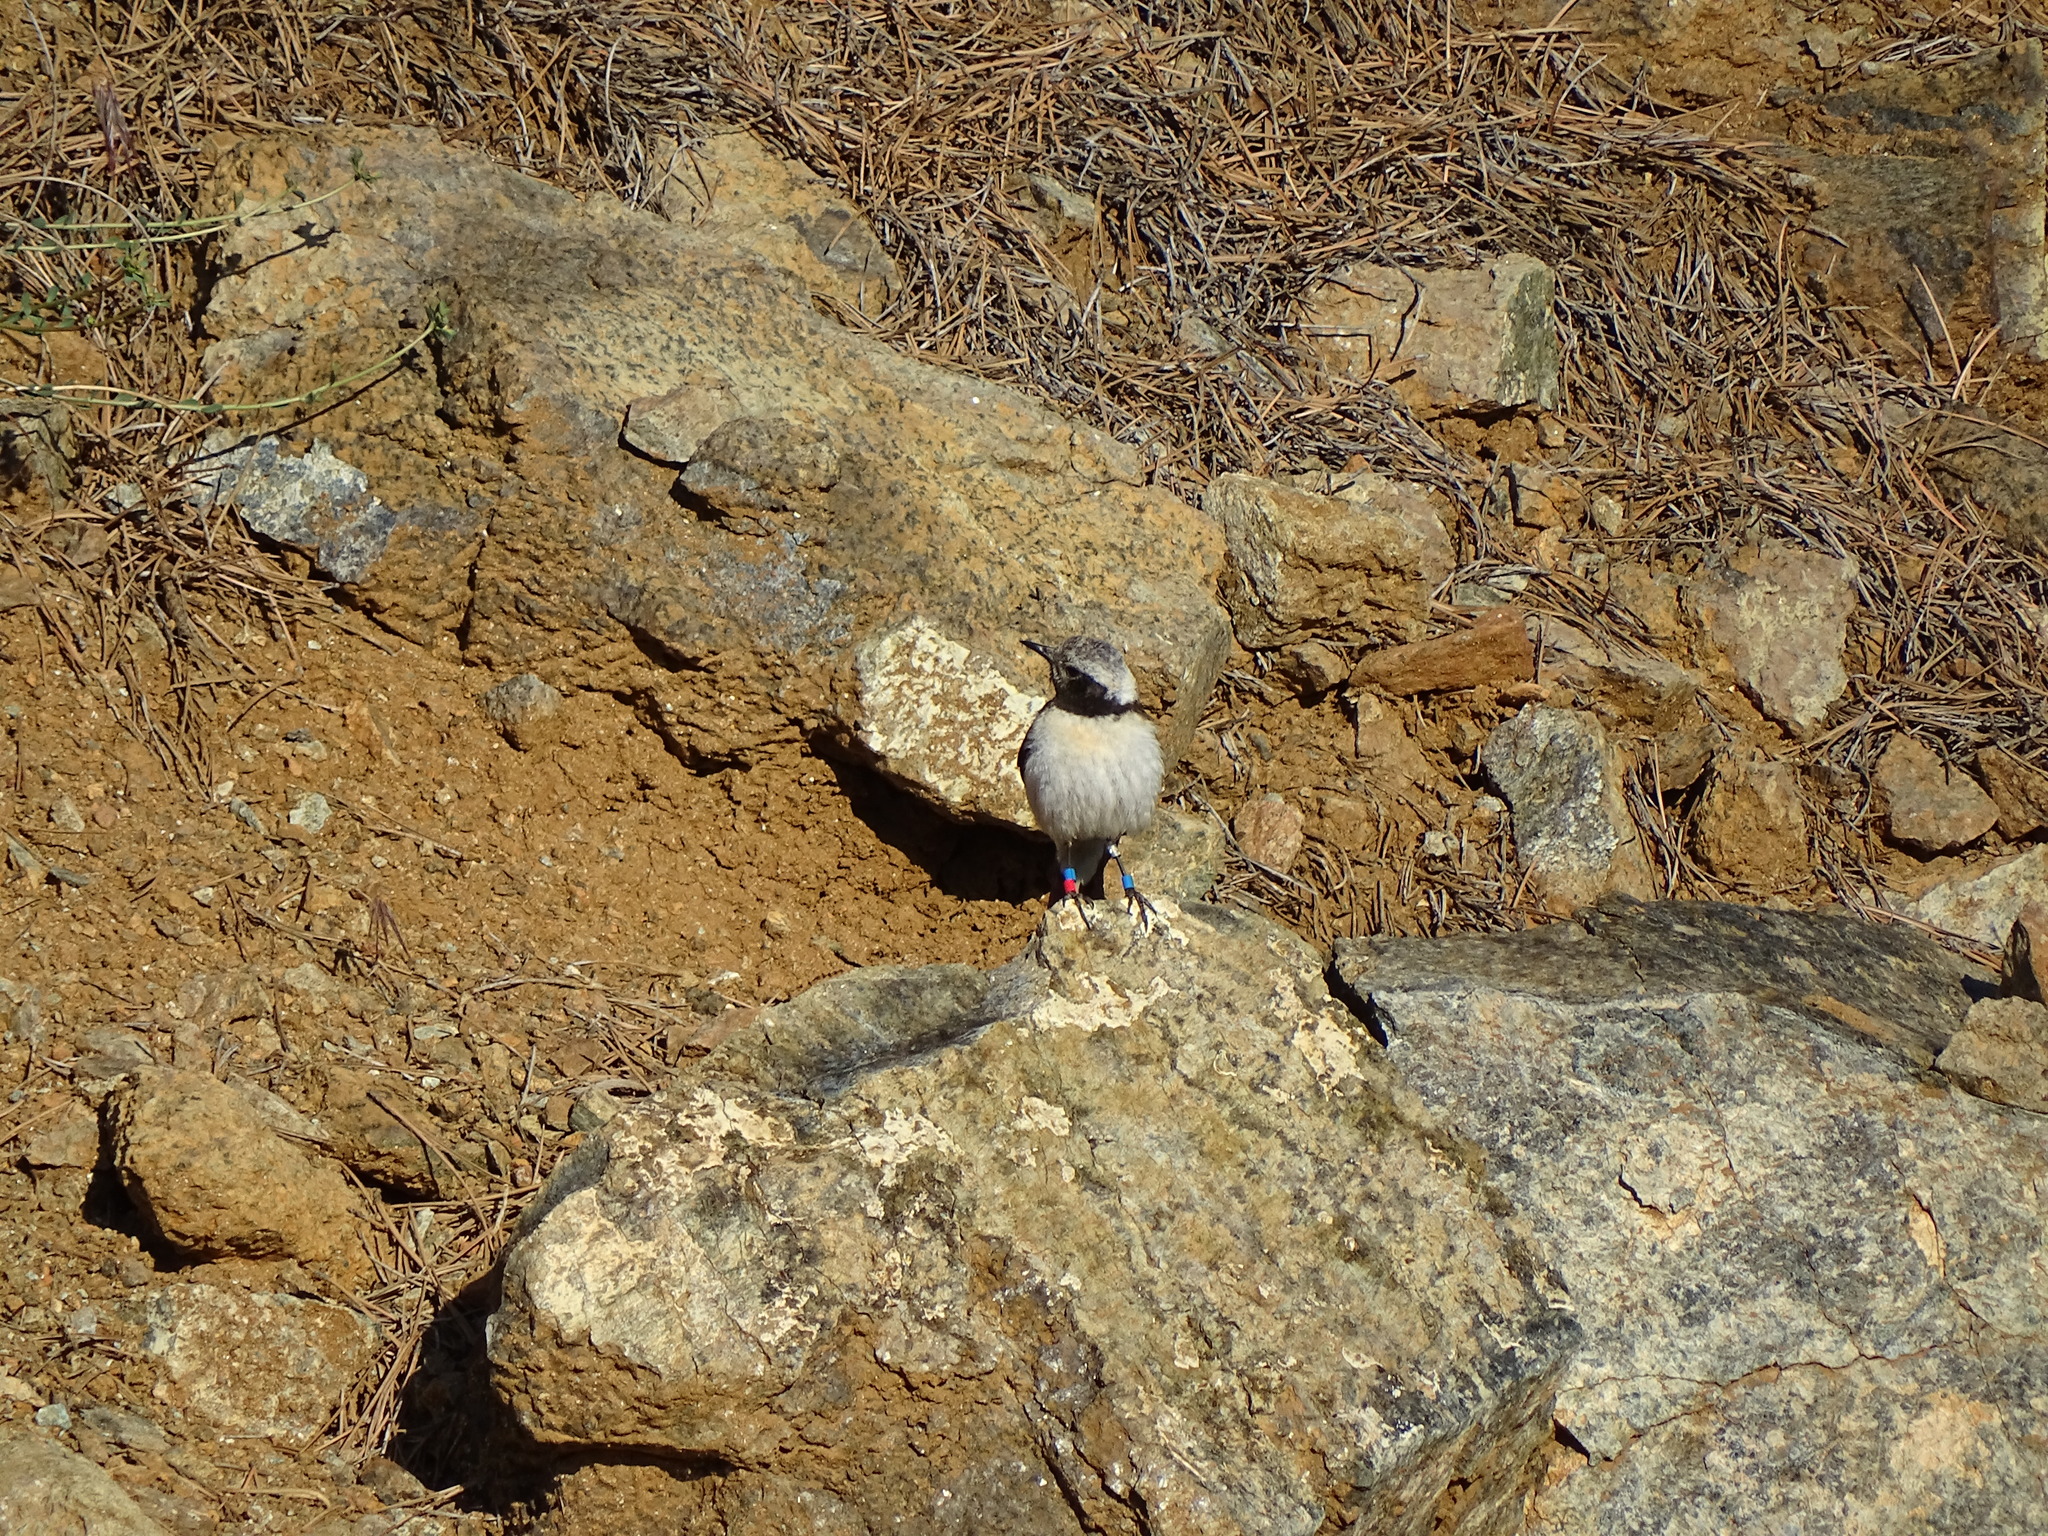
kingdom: Animalia
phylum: Chordata
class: Aves
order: Passeriformes
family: Muscicapidae
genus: Oenanthe
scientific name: Oenanthe cypriaca
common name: Cyprus wheatear
